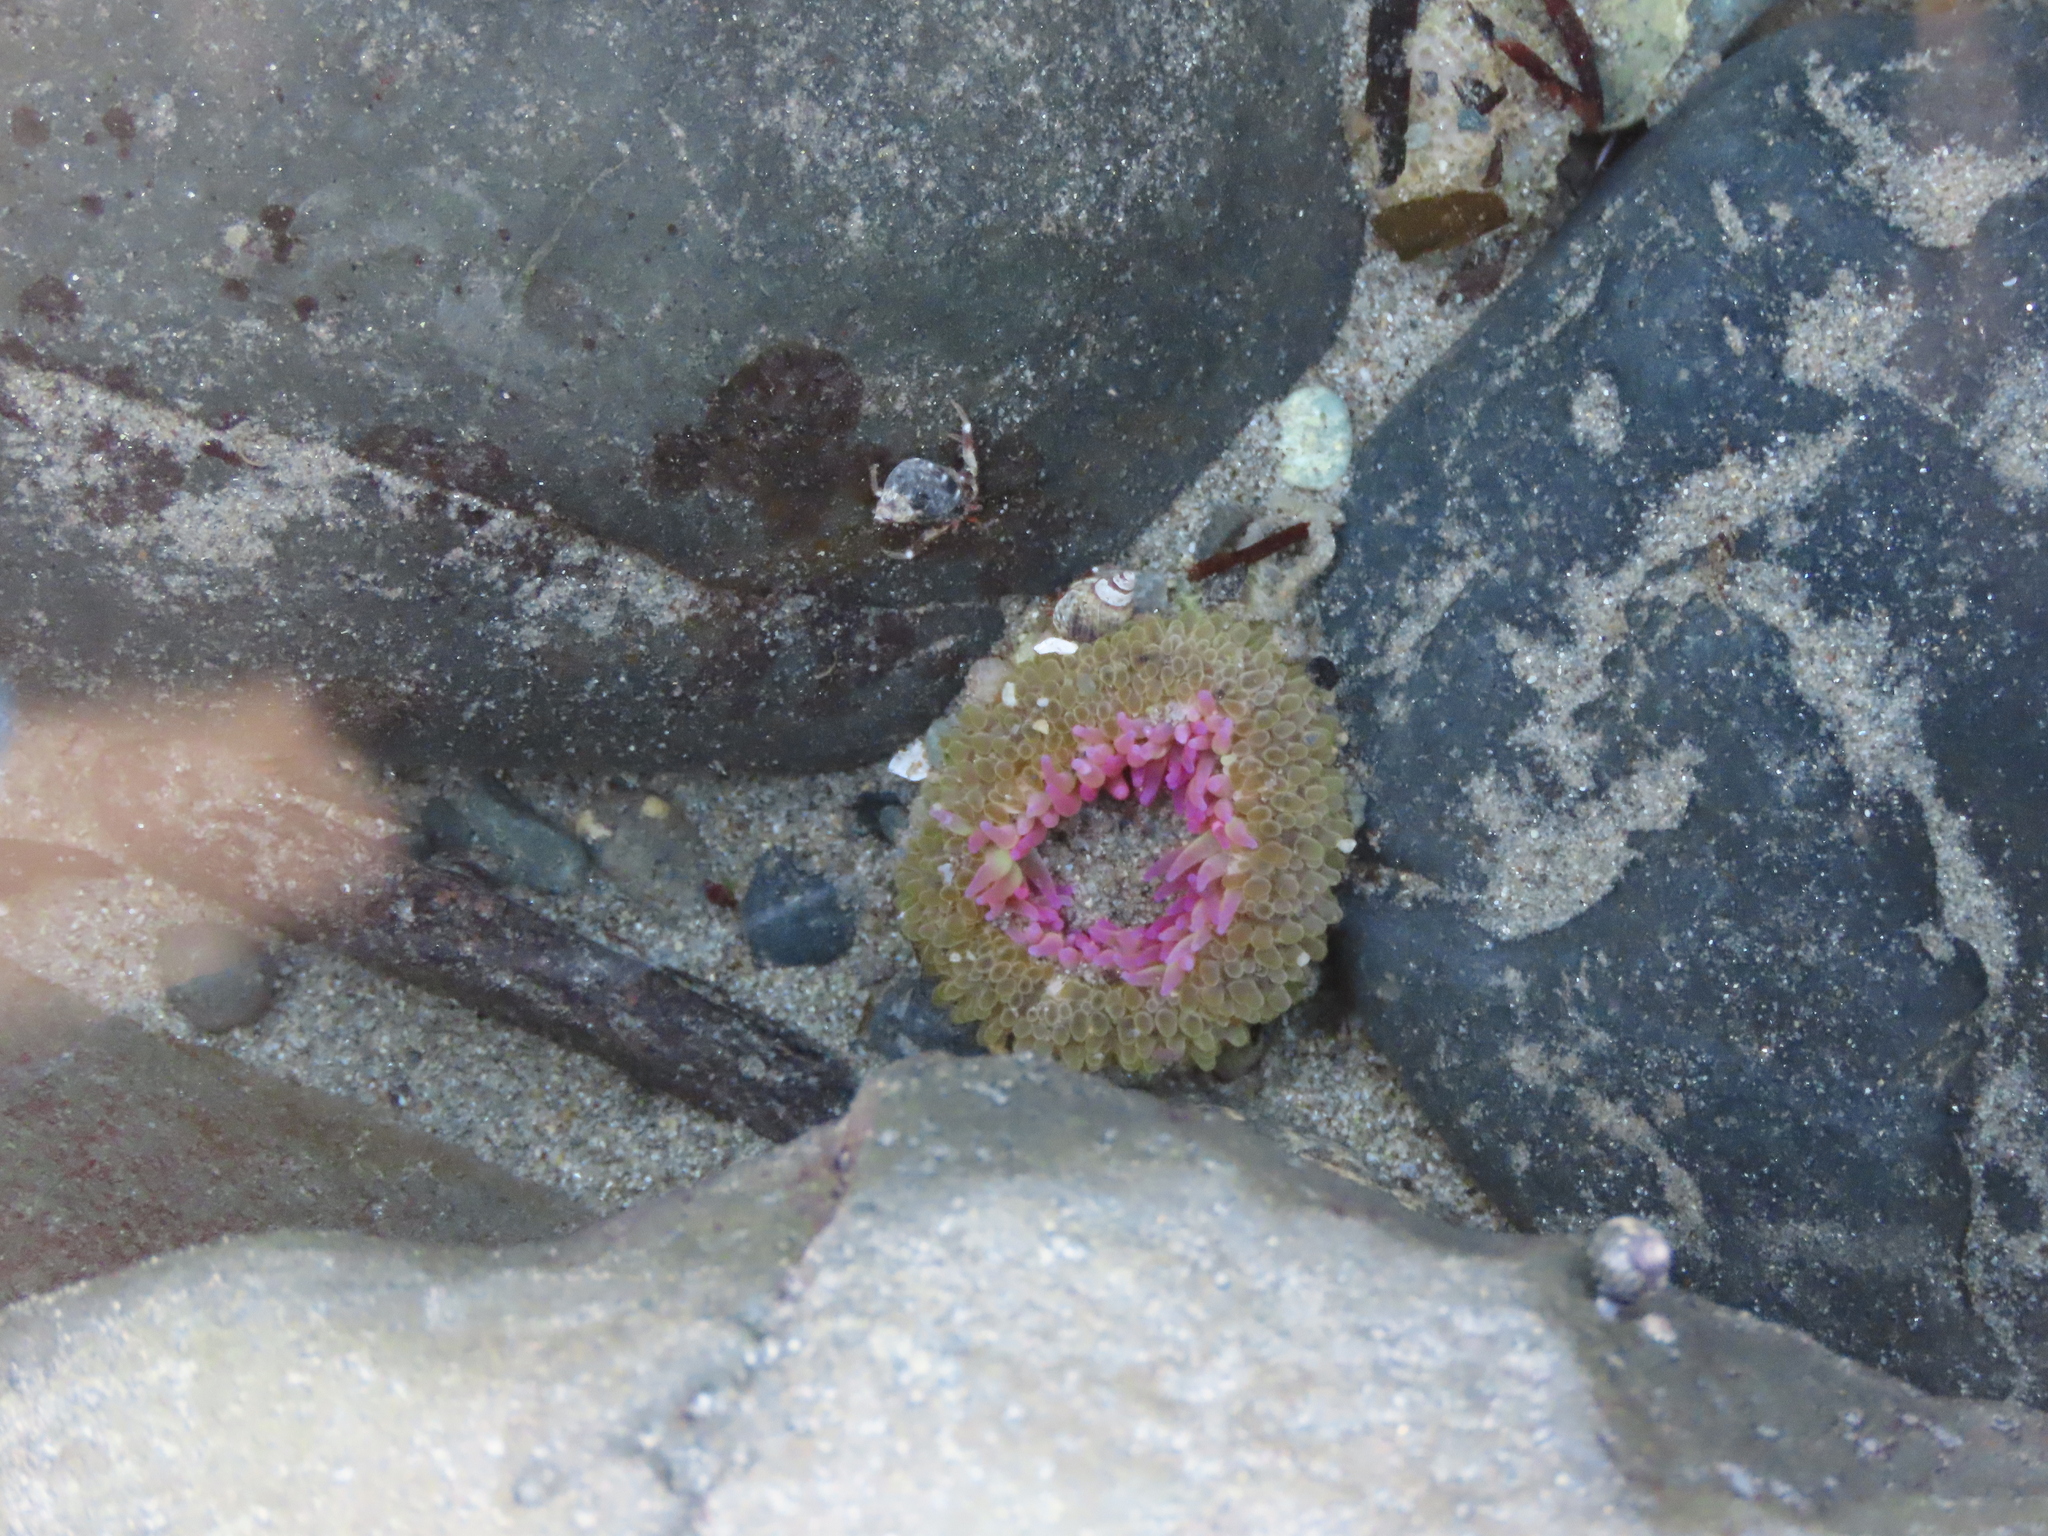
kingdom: Animalia
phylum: Cnidaria
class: Anthozoa
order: Actiniaria
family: Actiniidae
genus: Anthopleura
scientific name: Anthopleura elegantissima
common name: Clonal anemone
